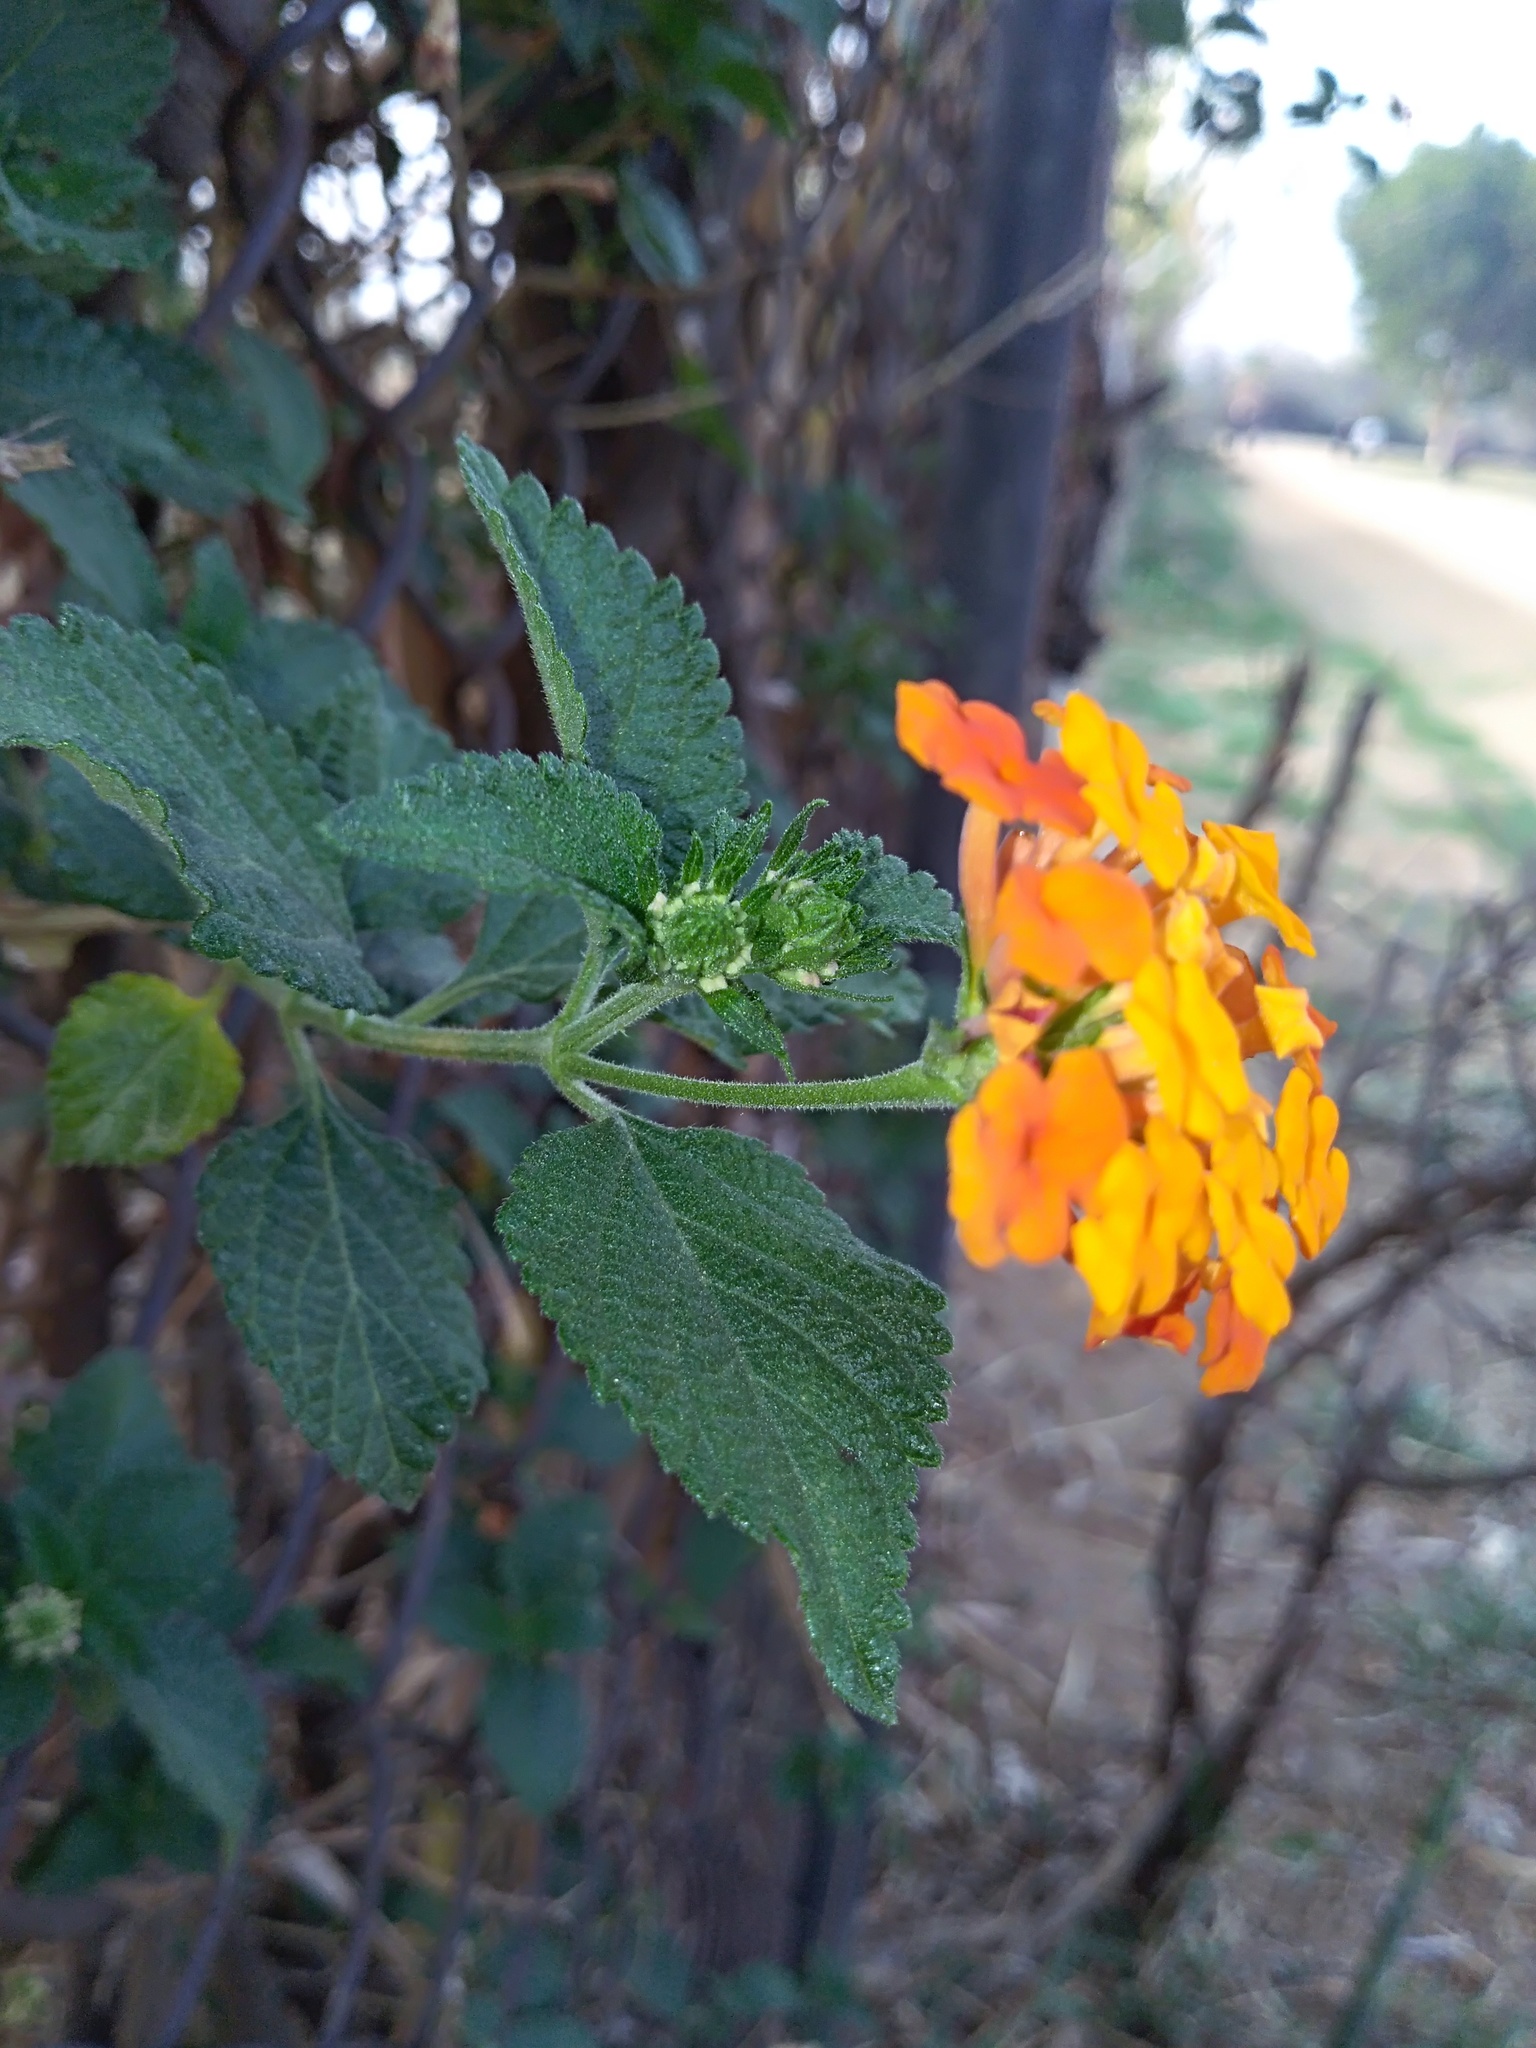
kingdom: Plantae
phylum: Tracheophyta
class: Magnoliopsida
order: Lamiales
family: Verbenaceae
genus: Lantana
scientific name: Lantana camara
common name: Lantana
